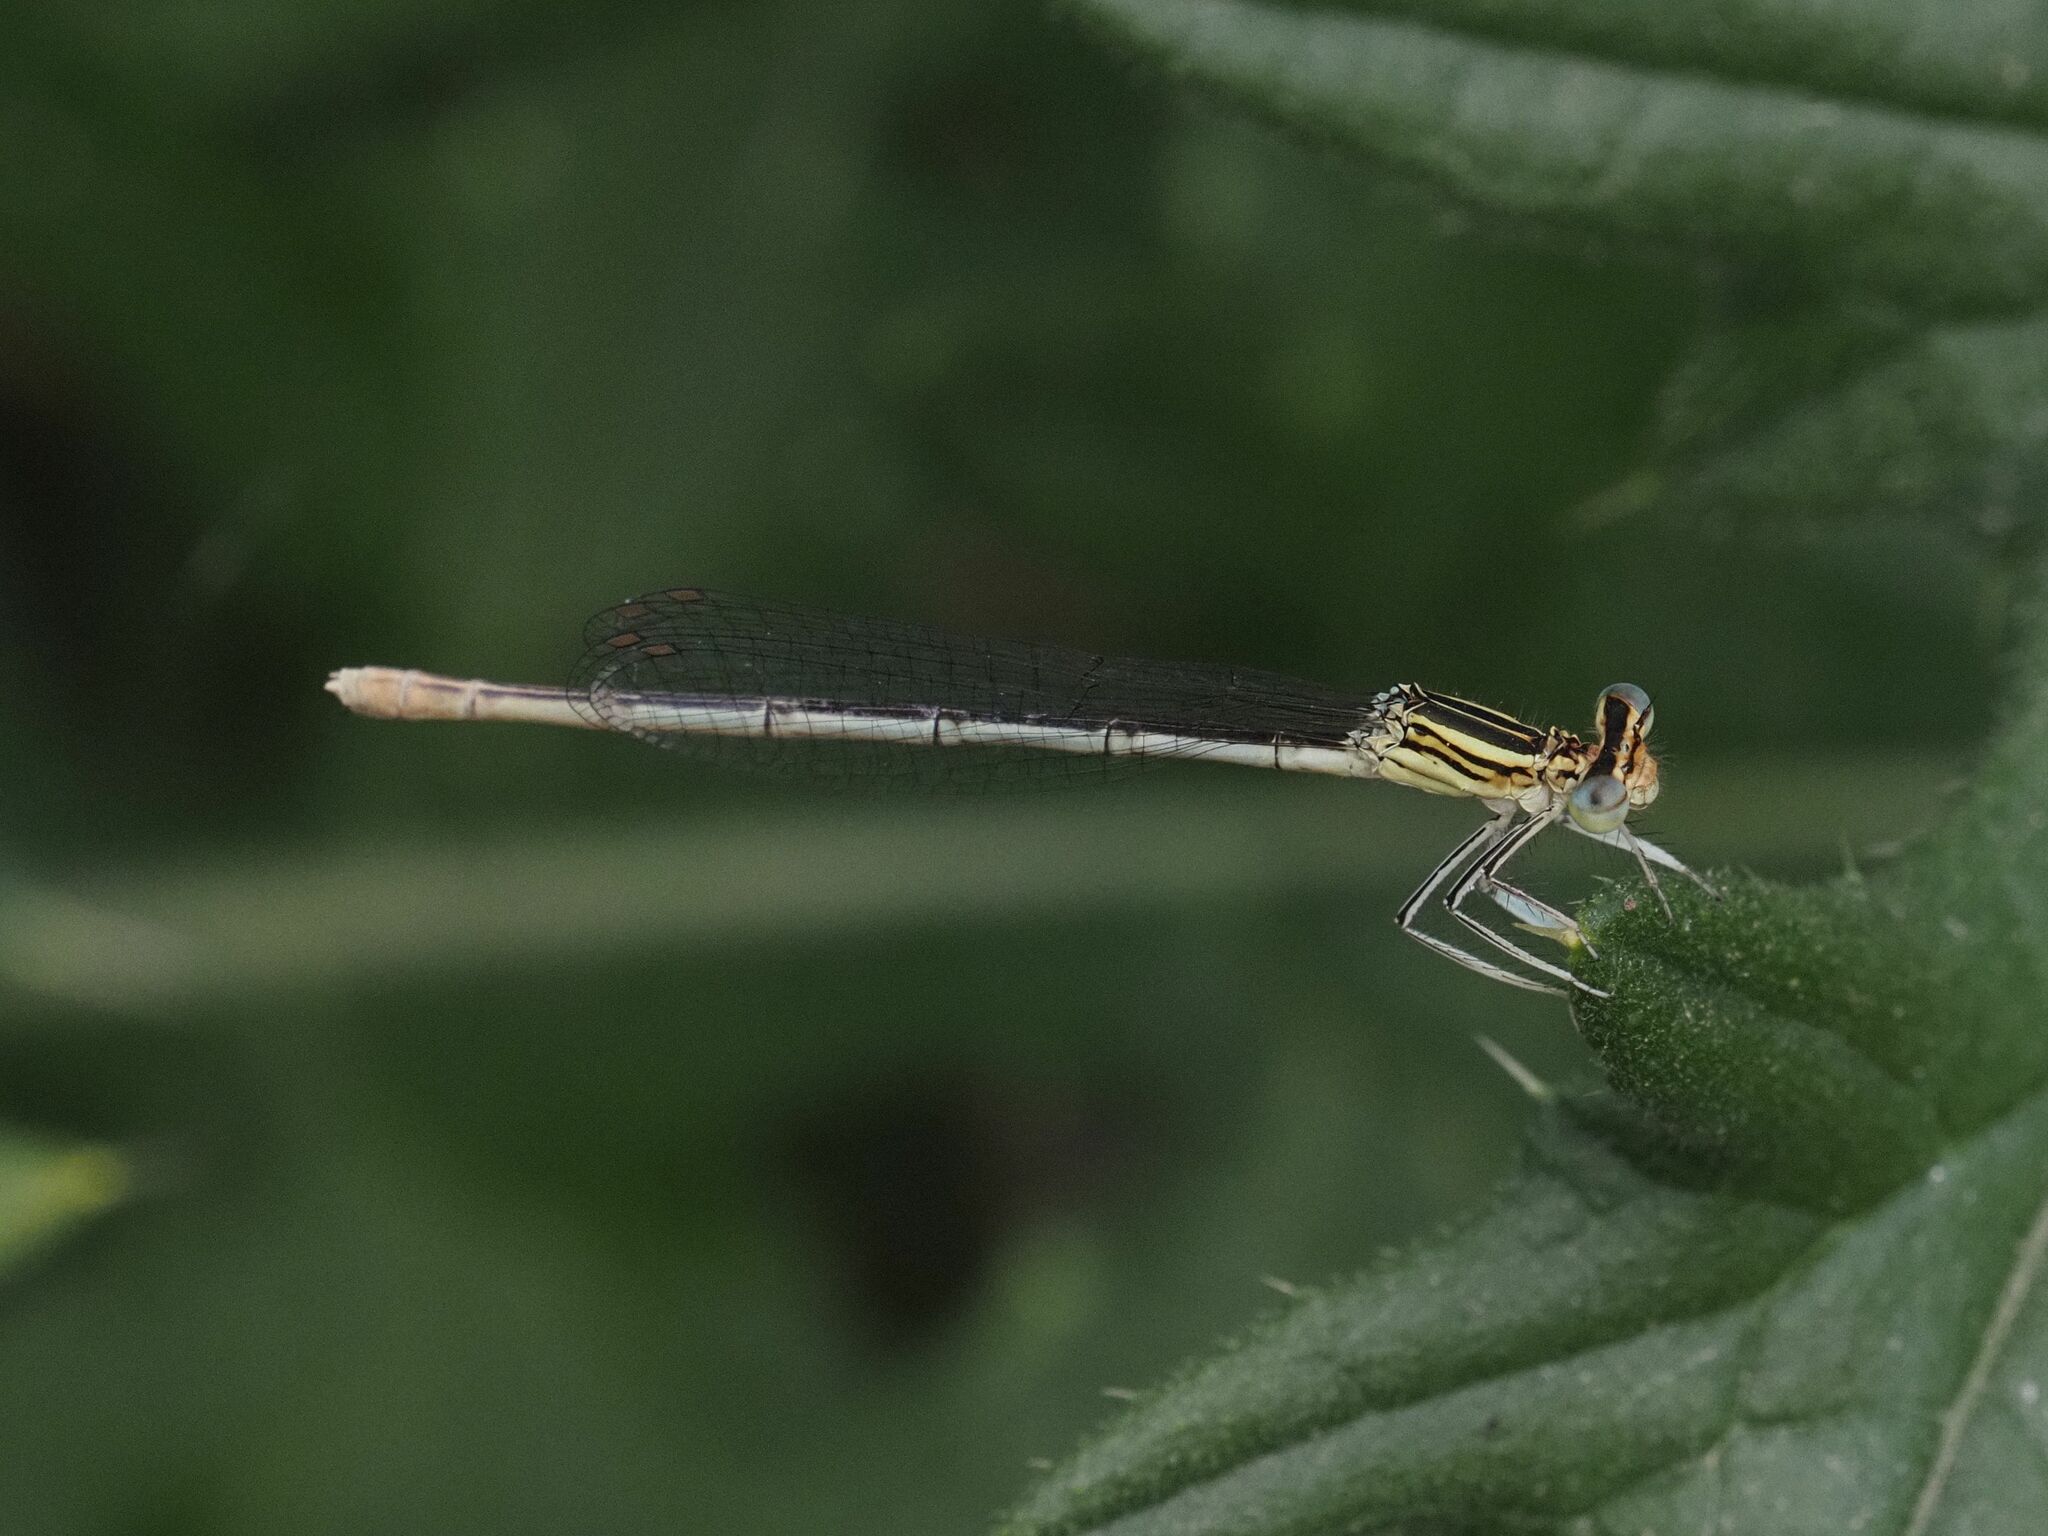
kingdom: Animalia
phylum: Arthropoda
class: Insecta
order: Odonata
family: Platycnemididae
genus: Platycnemis
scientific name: Platycnemis pennipes
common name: White-legged damselfly
